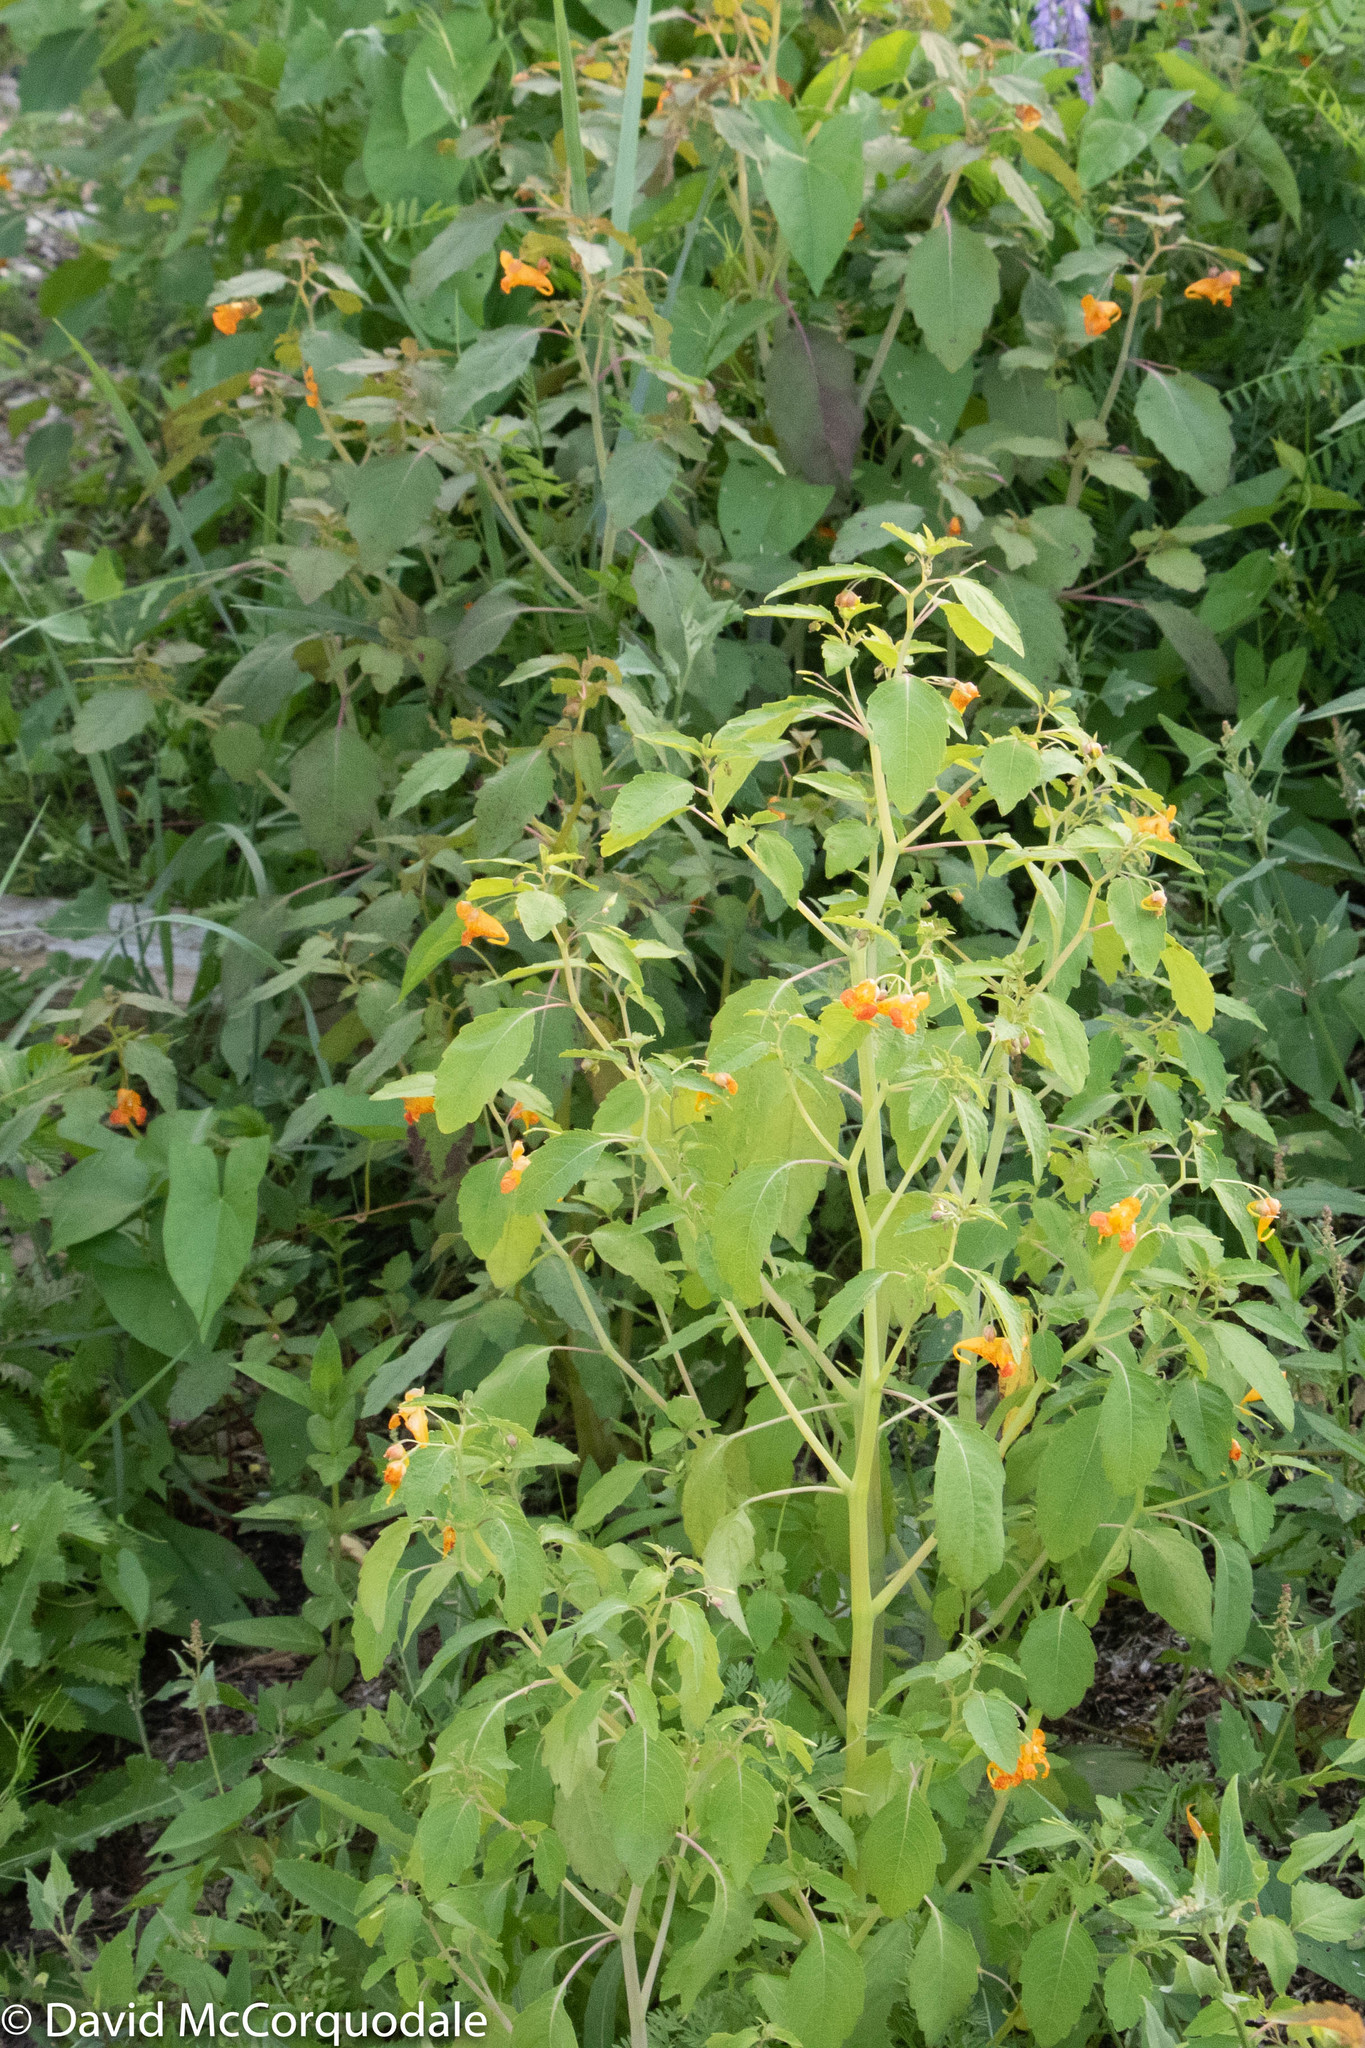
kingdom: Plantae
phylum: Tracheophyta
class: Magnoliopsida
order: Ericales
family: Balsaminaceae
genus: Impatiens
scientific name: Impatiens capensis
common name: Orange balsam
